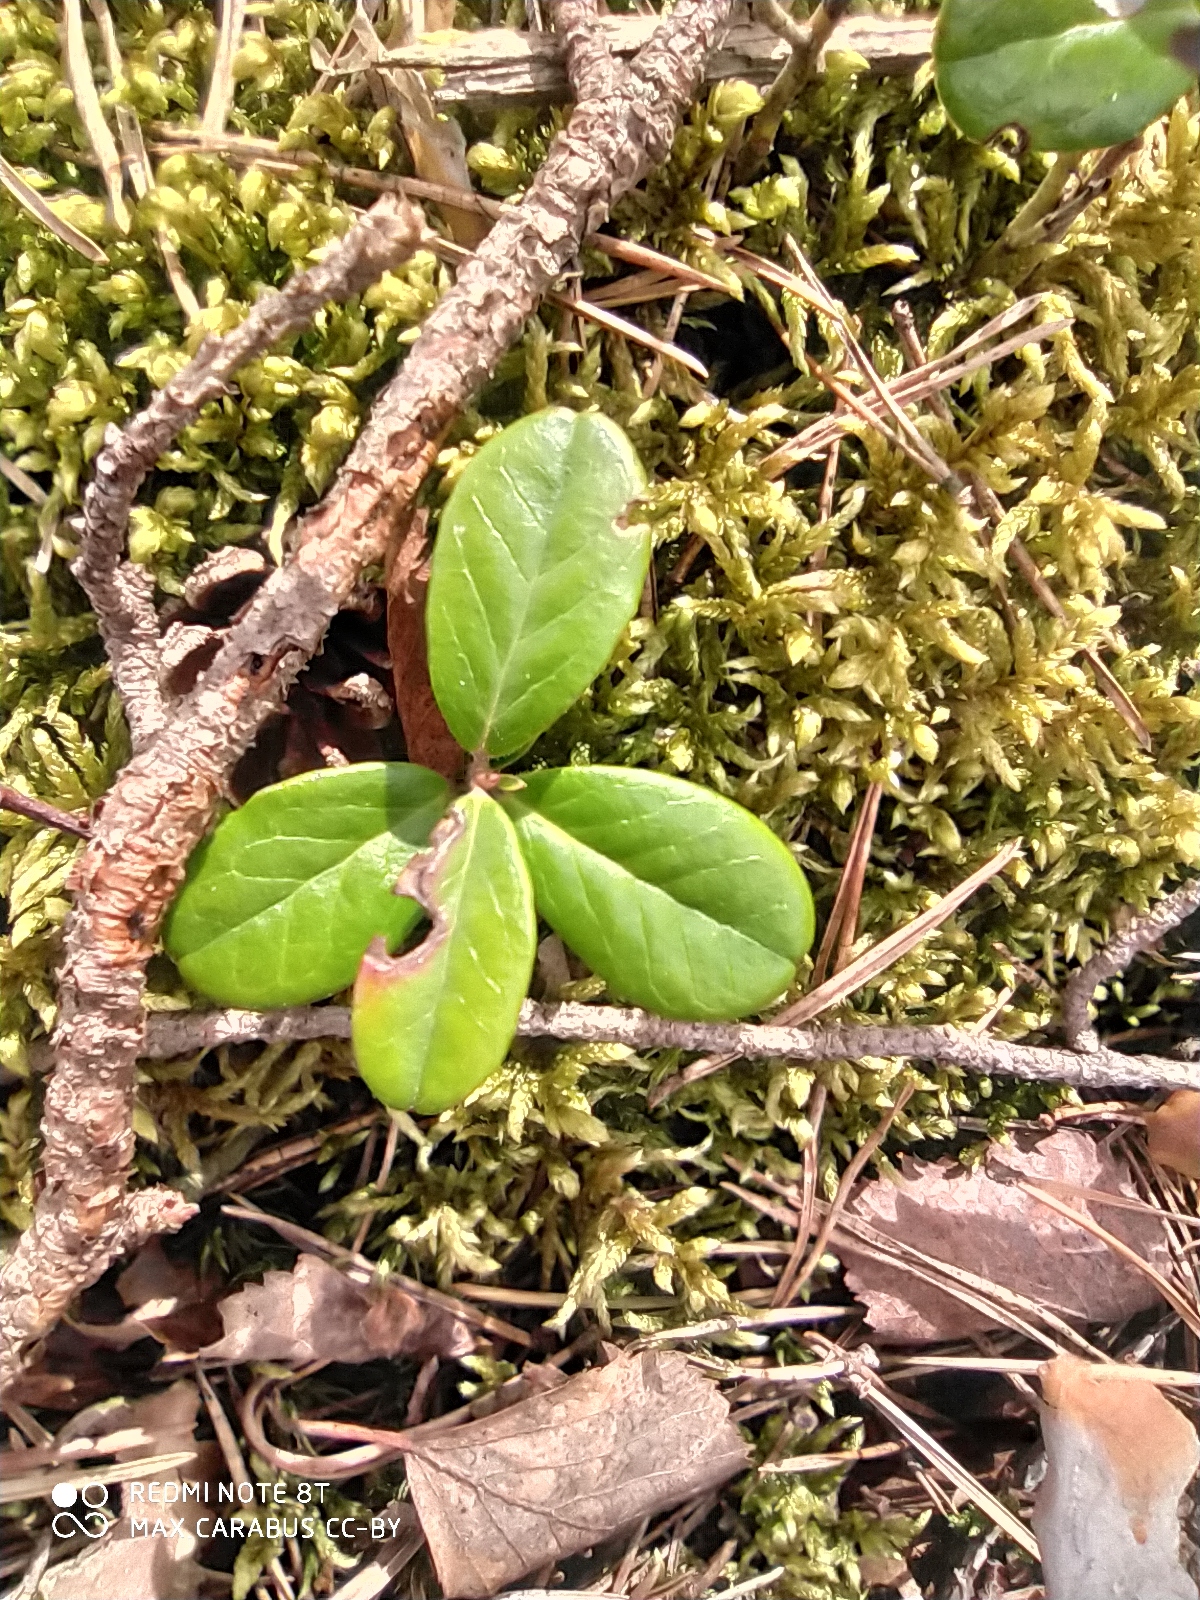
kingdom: Plantae
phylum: Tracheophyta
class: Magnoliopsida
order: Ericales
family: Ericaceae
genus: Vaccinium
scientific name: Vaccinium vitis-idaea
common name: Cowberry
